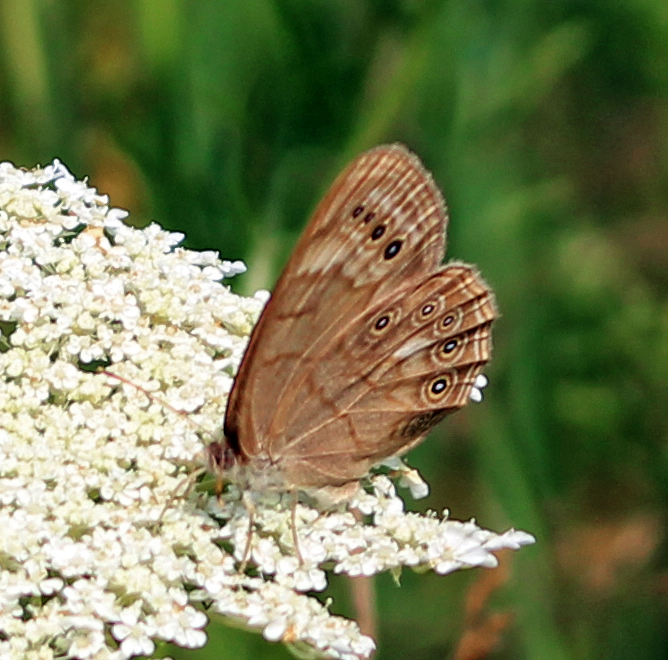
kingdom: Animalia
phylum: Arthropoda
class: Insecta
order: Lepidoptera
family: Nymphalidae
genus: Lethe
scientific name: Lethe eurydice
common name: Eyed brown
